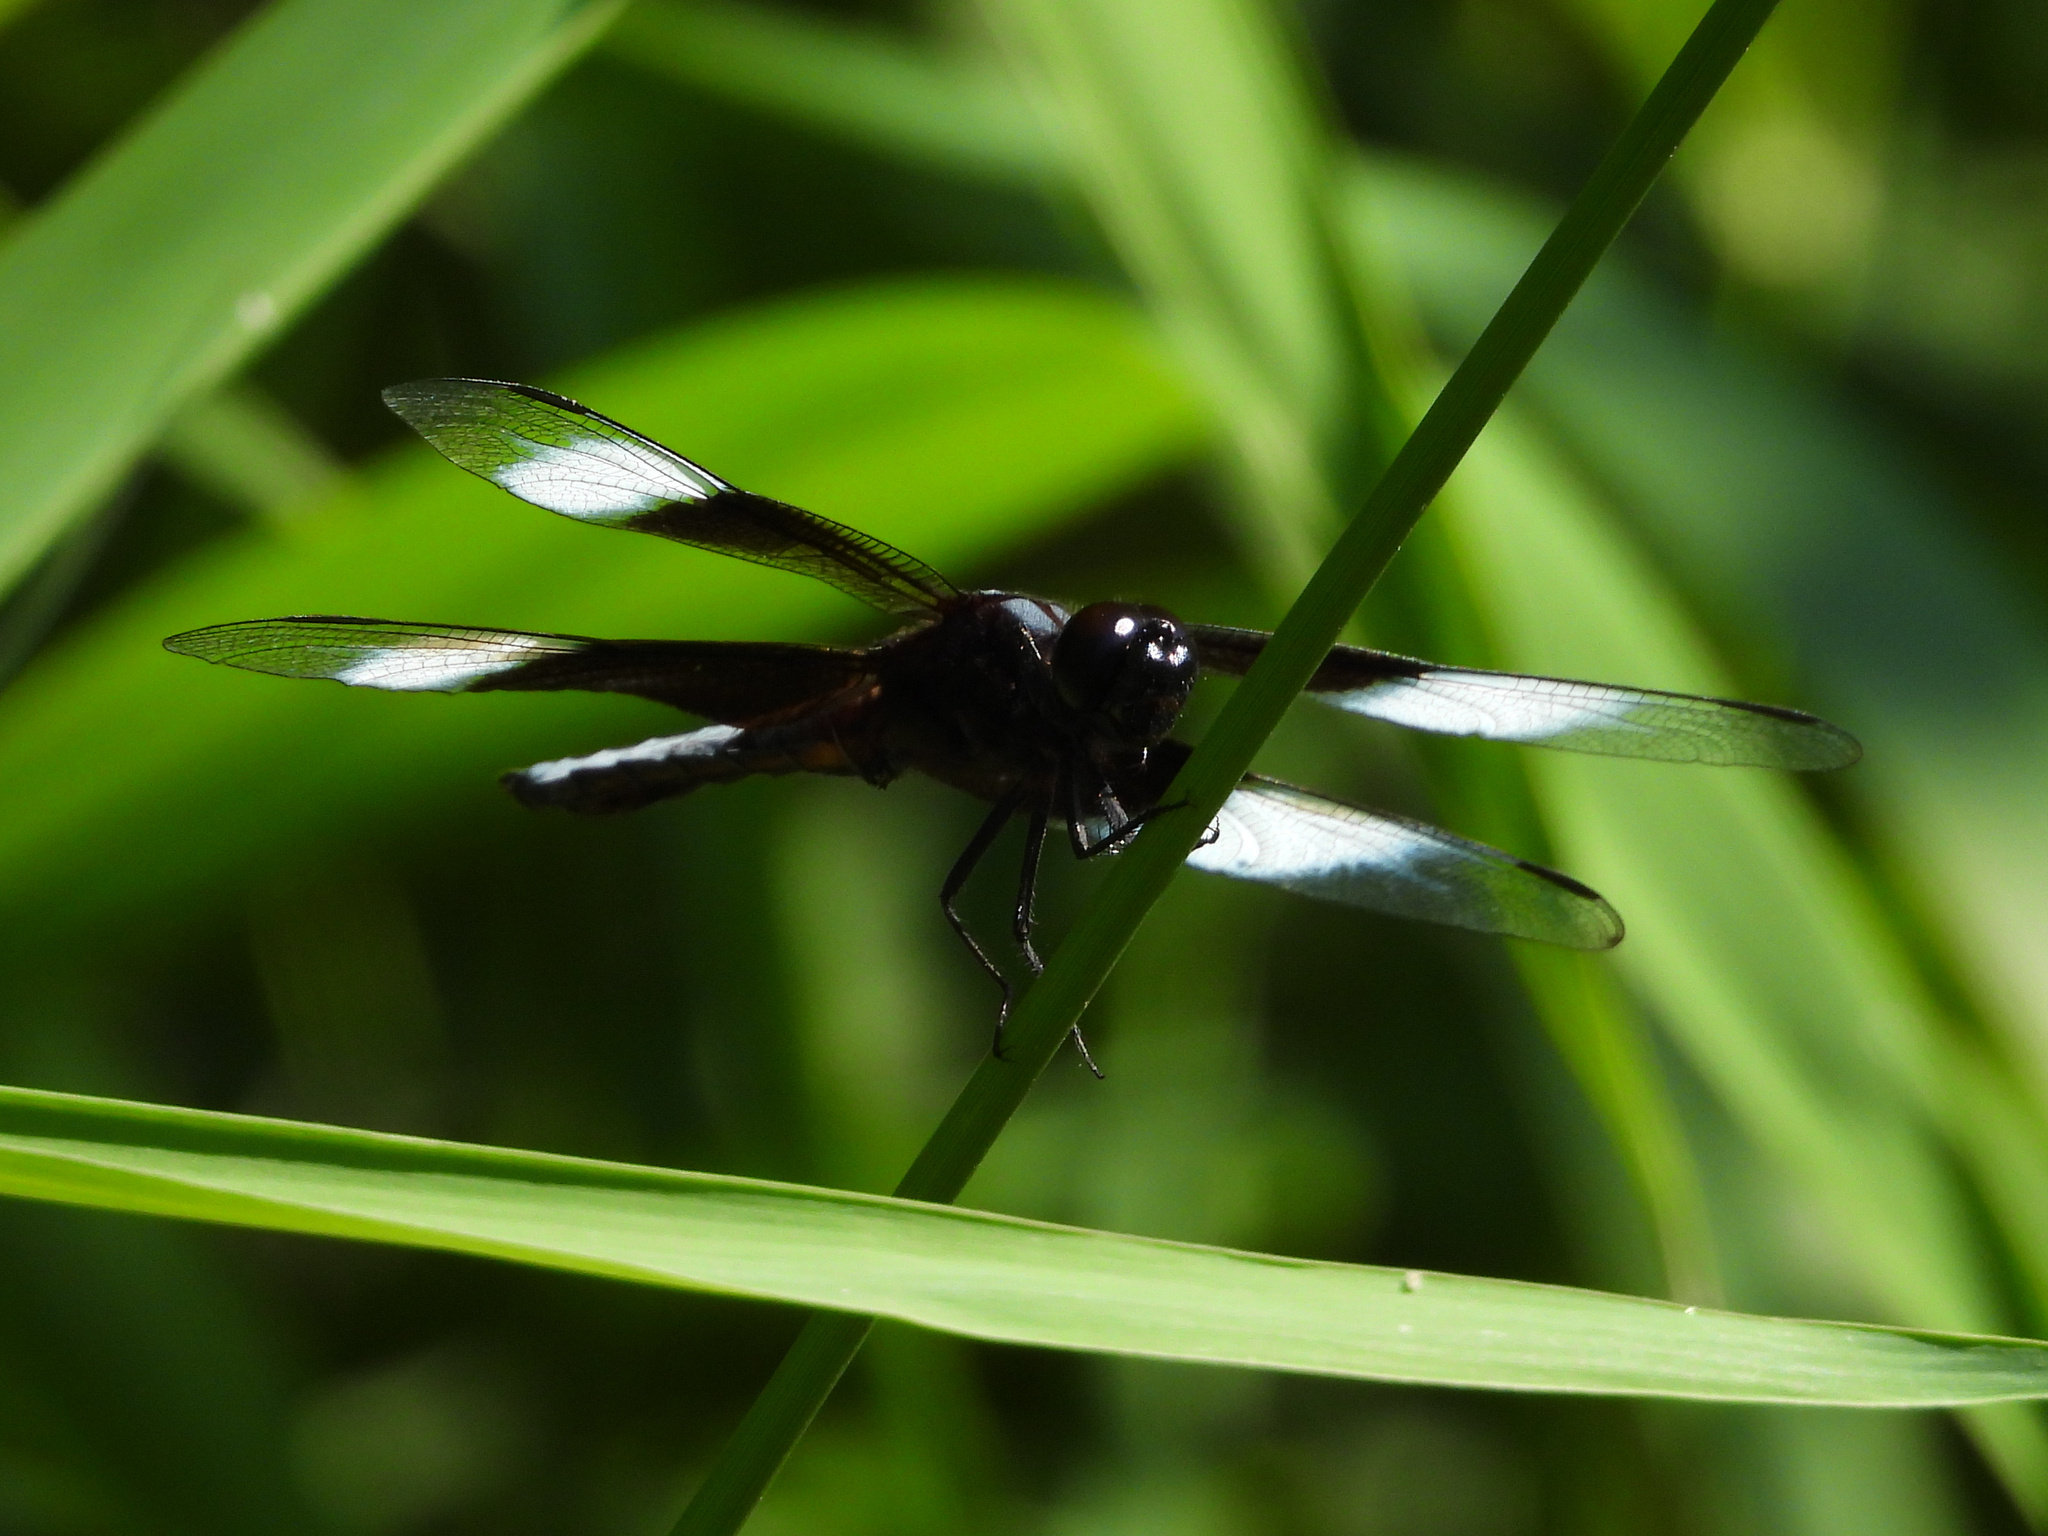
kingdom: Animalia
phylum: Arthropoda
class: Insecta
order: Odonata
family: Libellulidae
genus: Libellula
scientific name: Libellula luctuosa
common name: Widow skimmer
